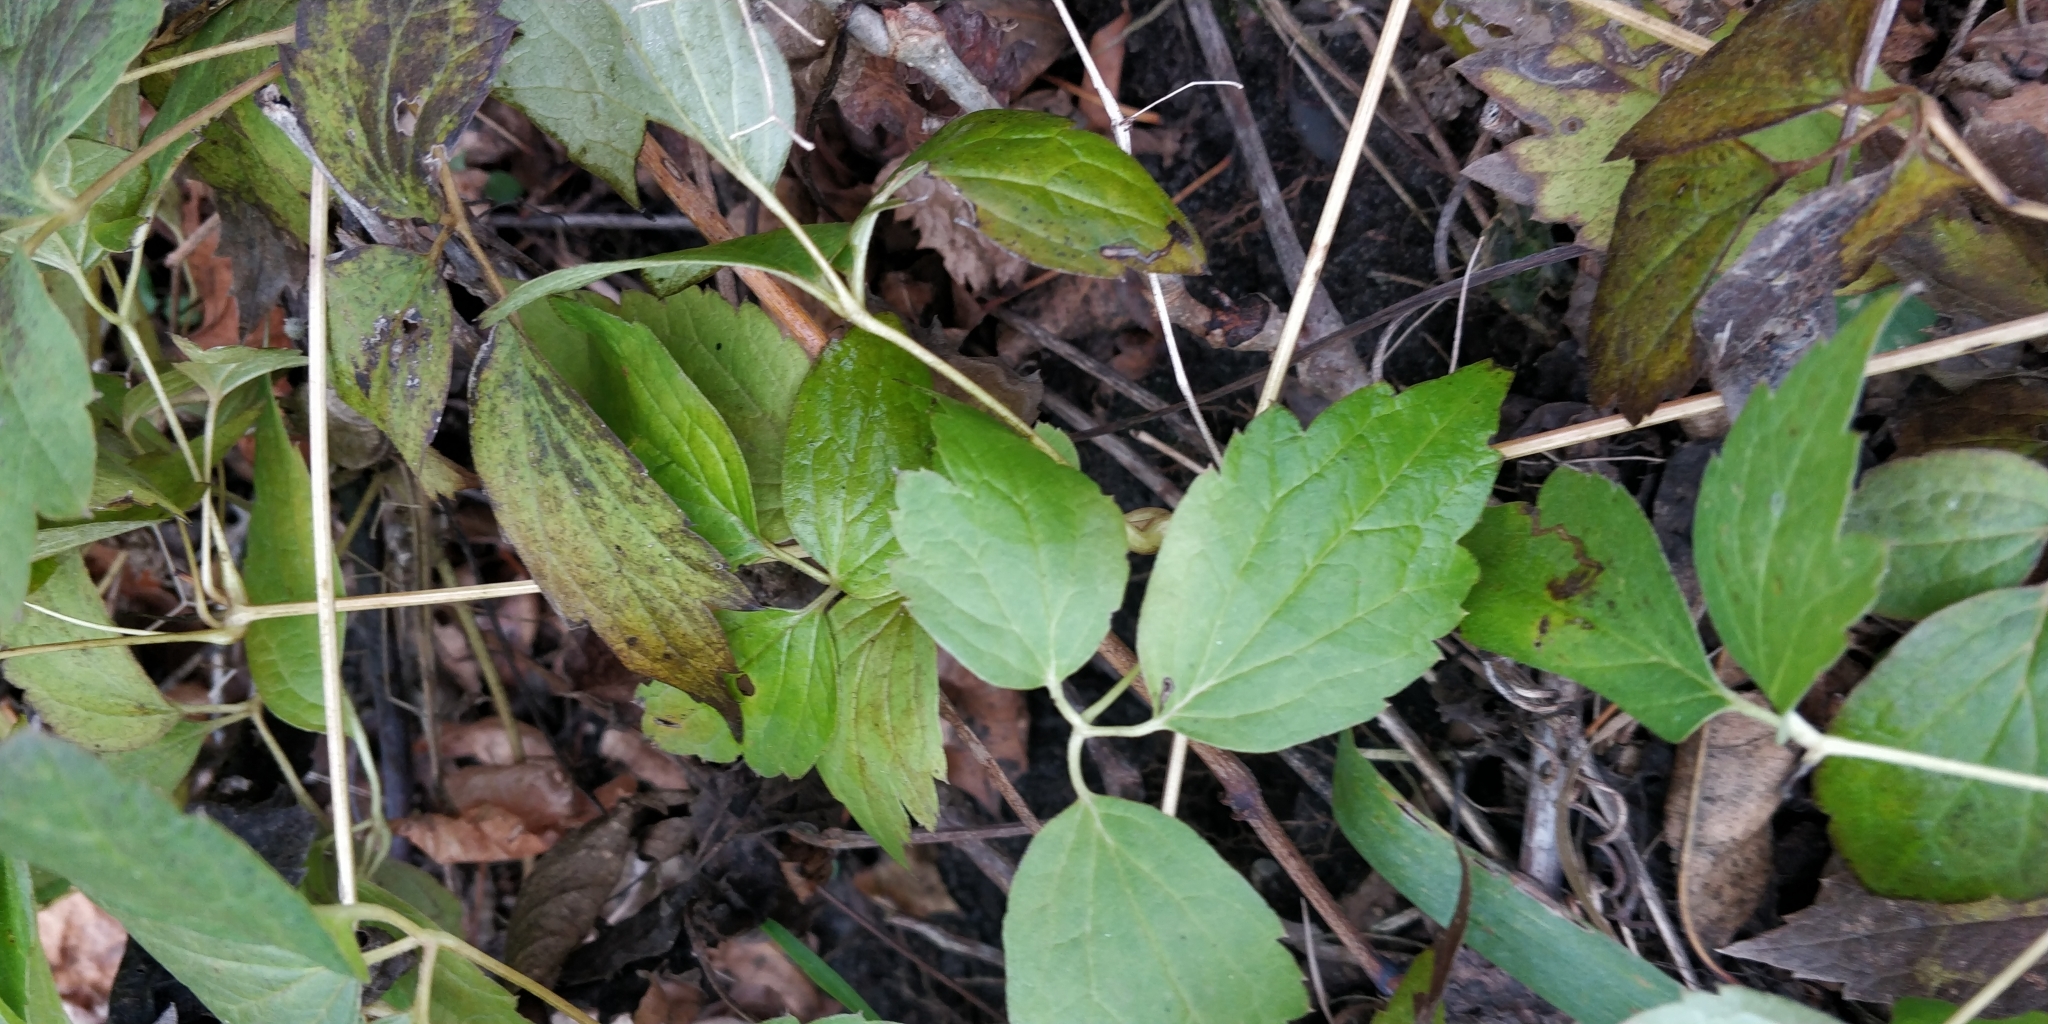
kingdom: Plantae
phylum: Tracheophyta
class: Magnoliopsida
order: Ranunculales
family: Ranunculaceae
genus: Clematis
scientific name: Clematis virginiana
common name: Virgin's-bower
